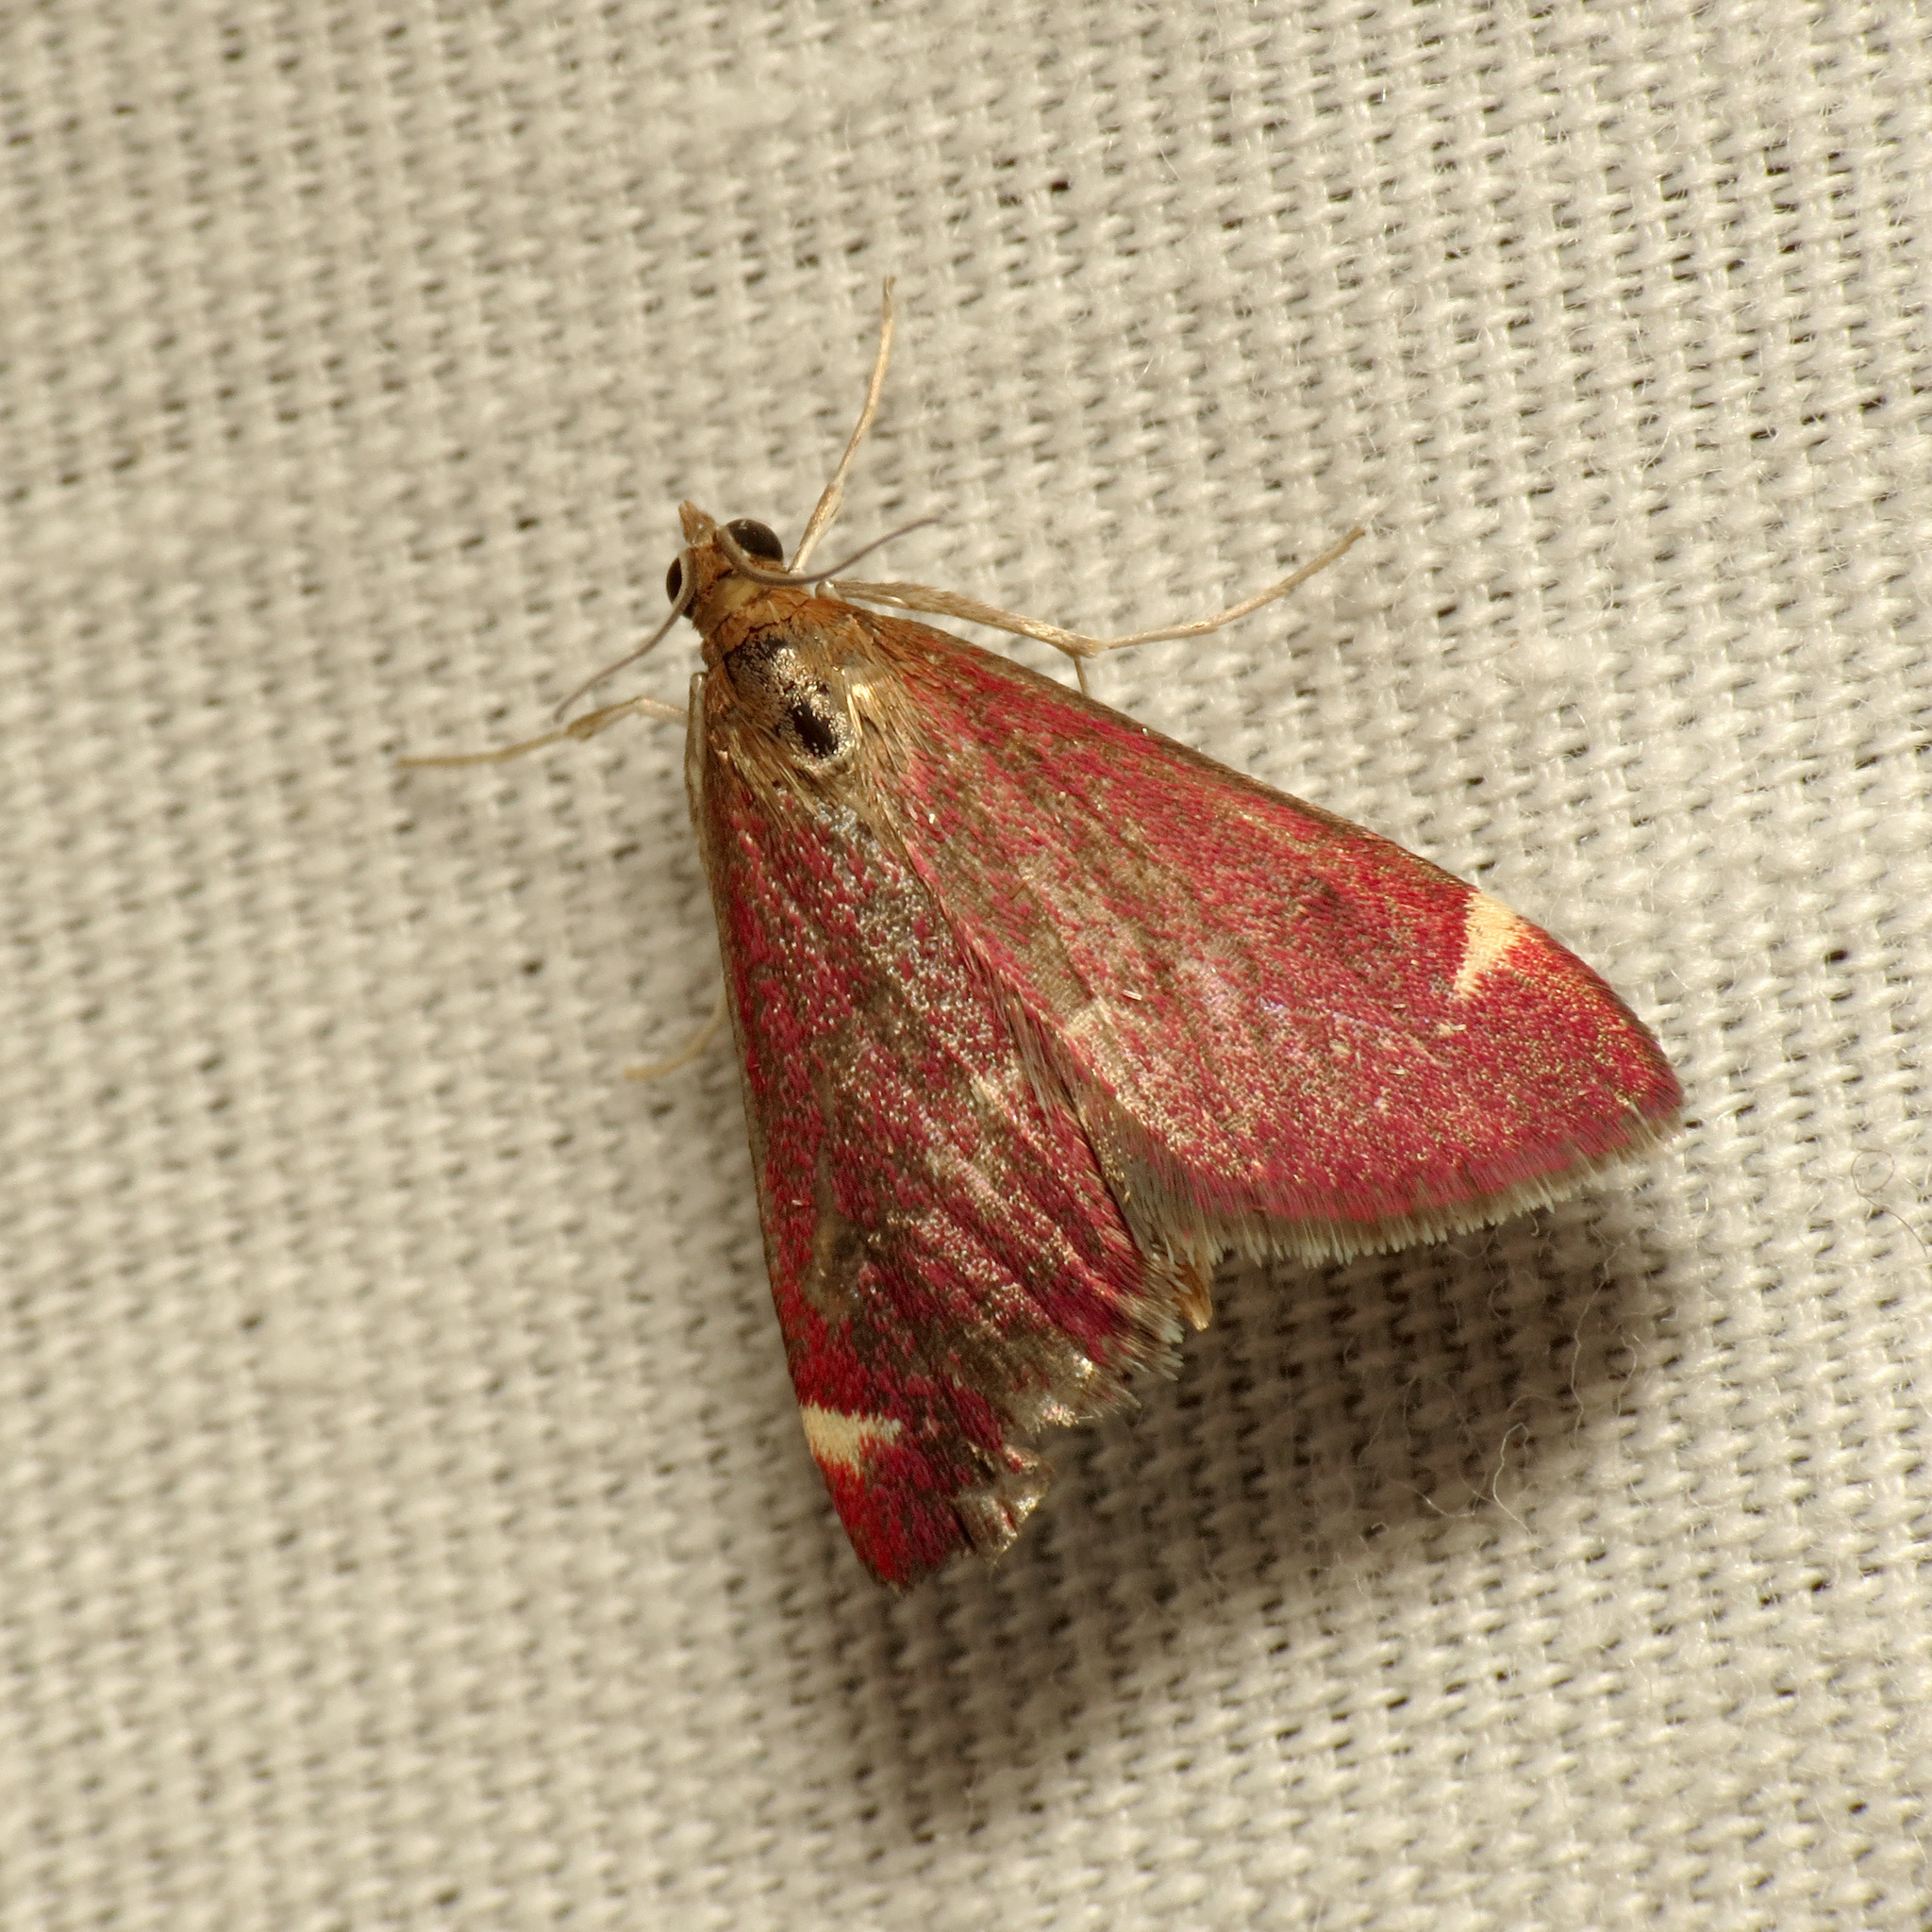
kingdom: Animalia
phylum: Arthropoda
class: Insecta
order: Lepidoptera
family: Crambidae
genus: Pyrausta
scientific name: Pyrausta grotei
